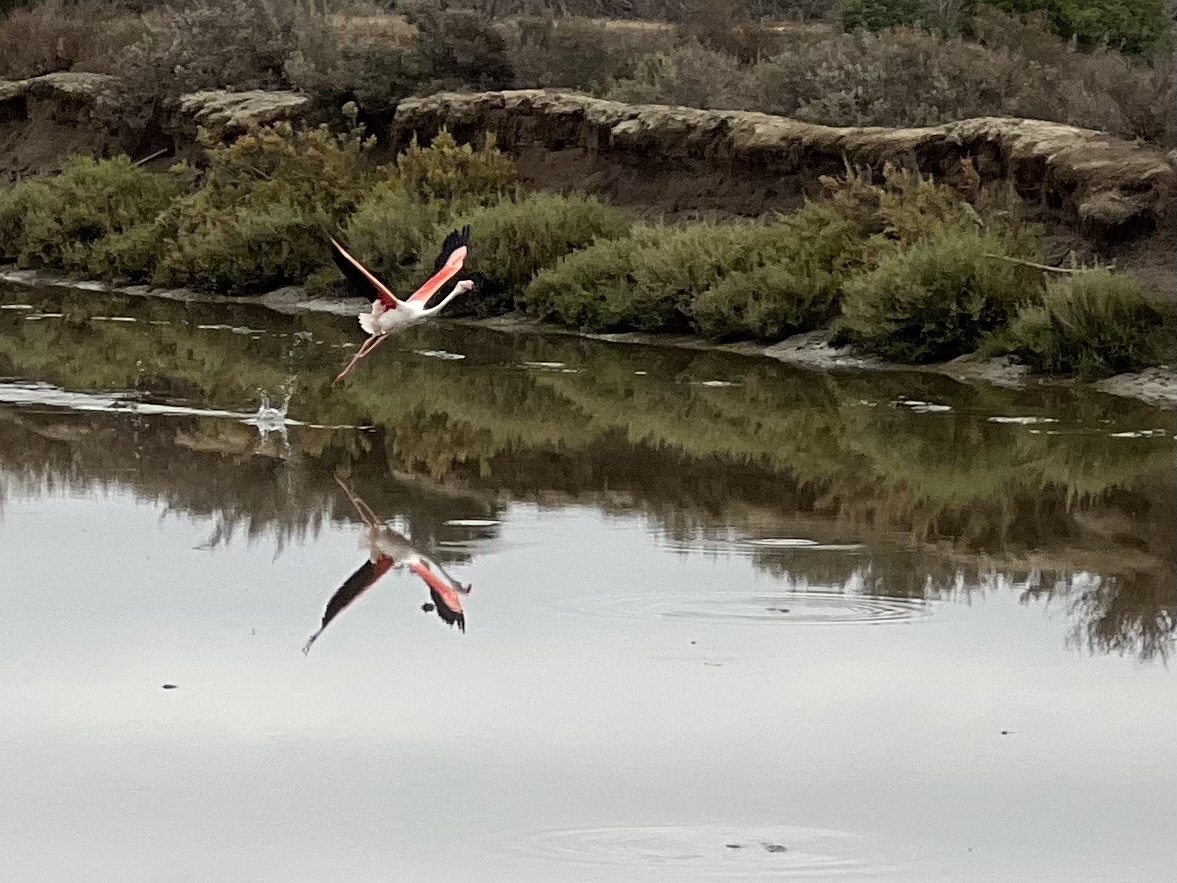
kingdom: Animalia
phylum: Chordata
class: Aves
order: Phoenicopteriformes
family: Phoenicopteridae
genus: Phoenicopterus
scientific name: Phoenicopterus roseus
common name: Greater flamingo
